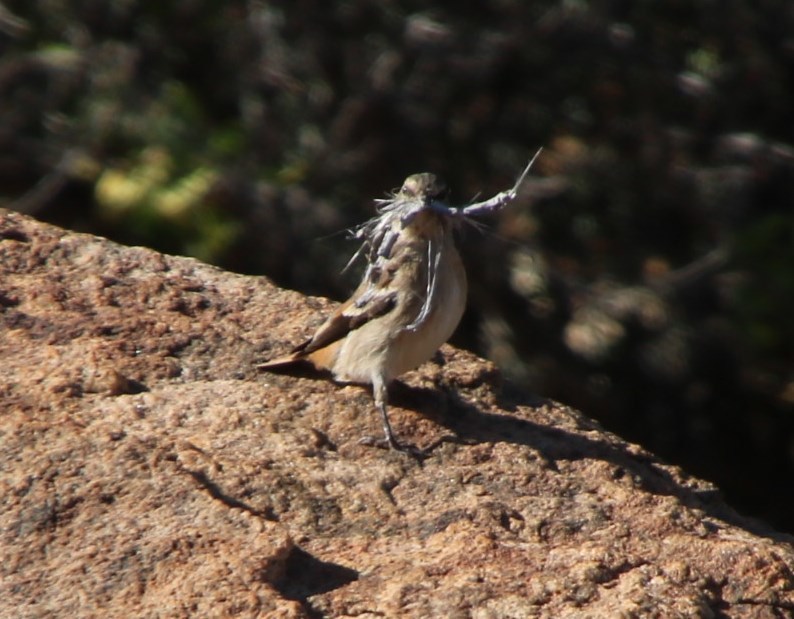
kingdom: Animalia
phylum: Chordata
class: Aves
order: Passeriformes
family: Fringillidae
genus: Serinus
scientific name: Serinus alario
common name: Black-headed canary
